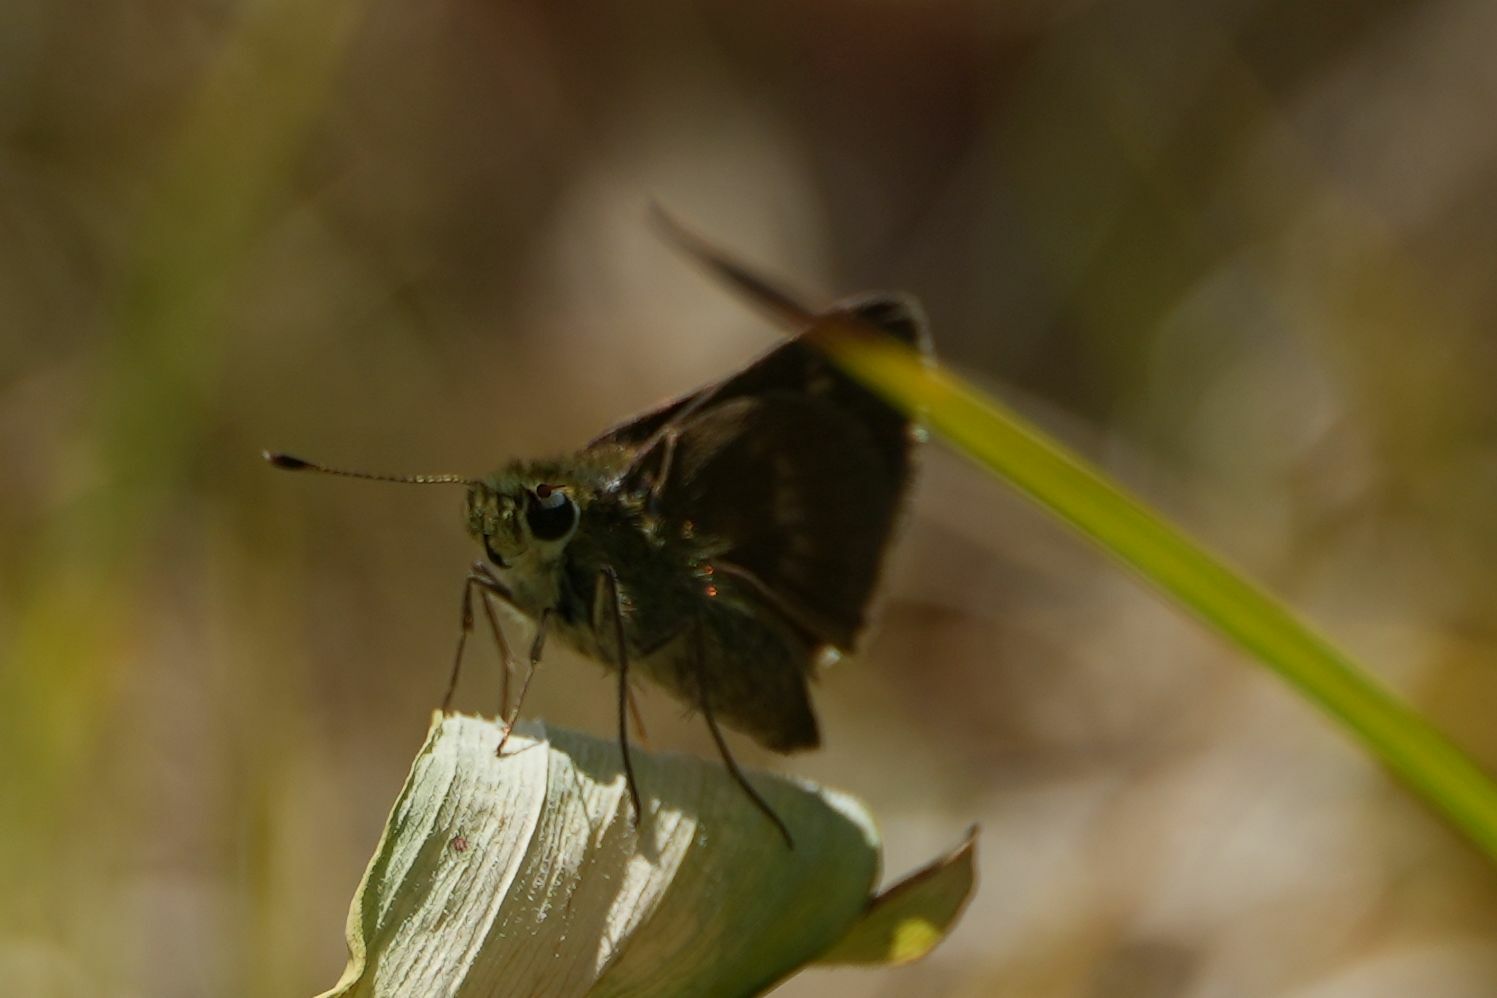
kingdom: Animalia
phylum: Arthropoda
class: Insecta
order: Lepidoptera
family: Hesperiidae
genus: Polites
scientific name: Polites egeremet
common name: Northern broken-dash
